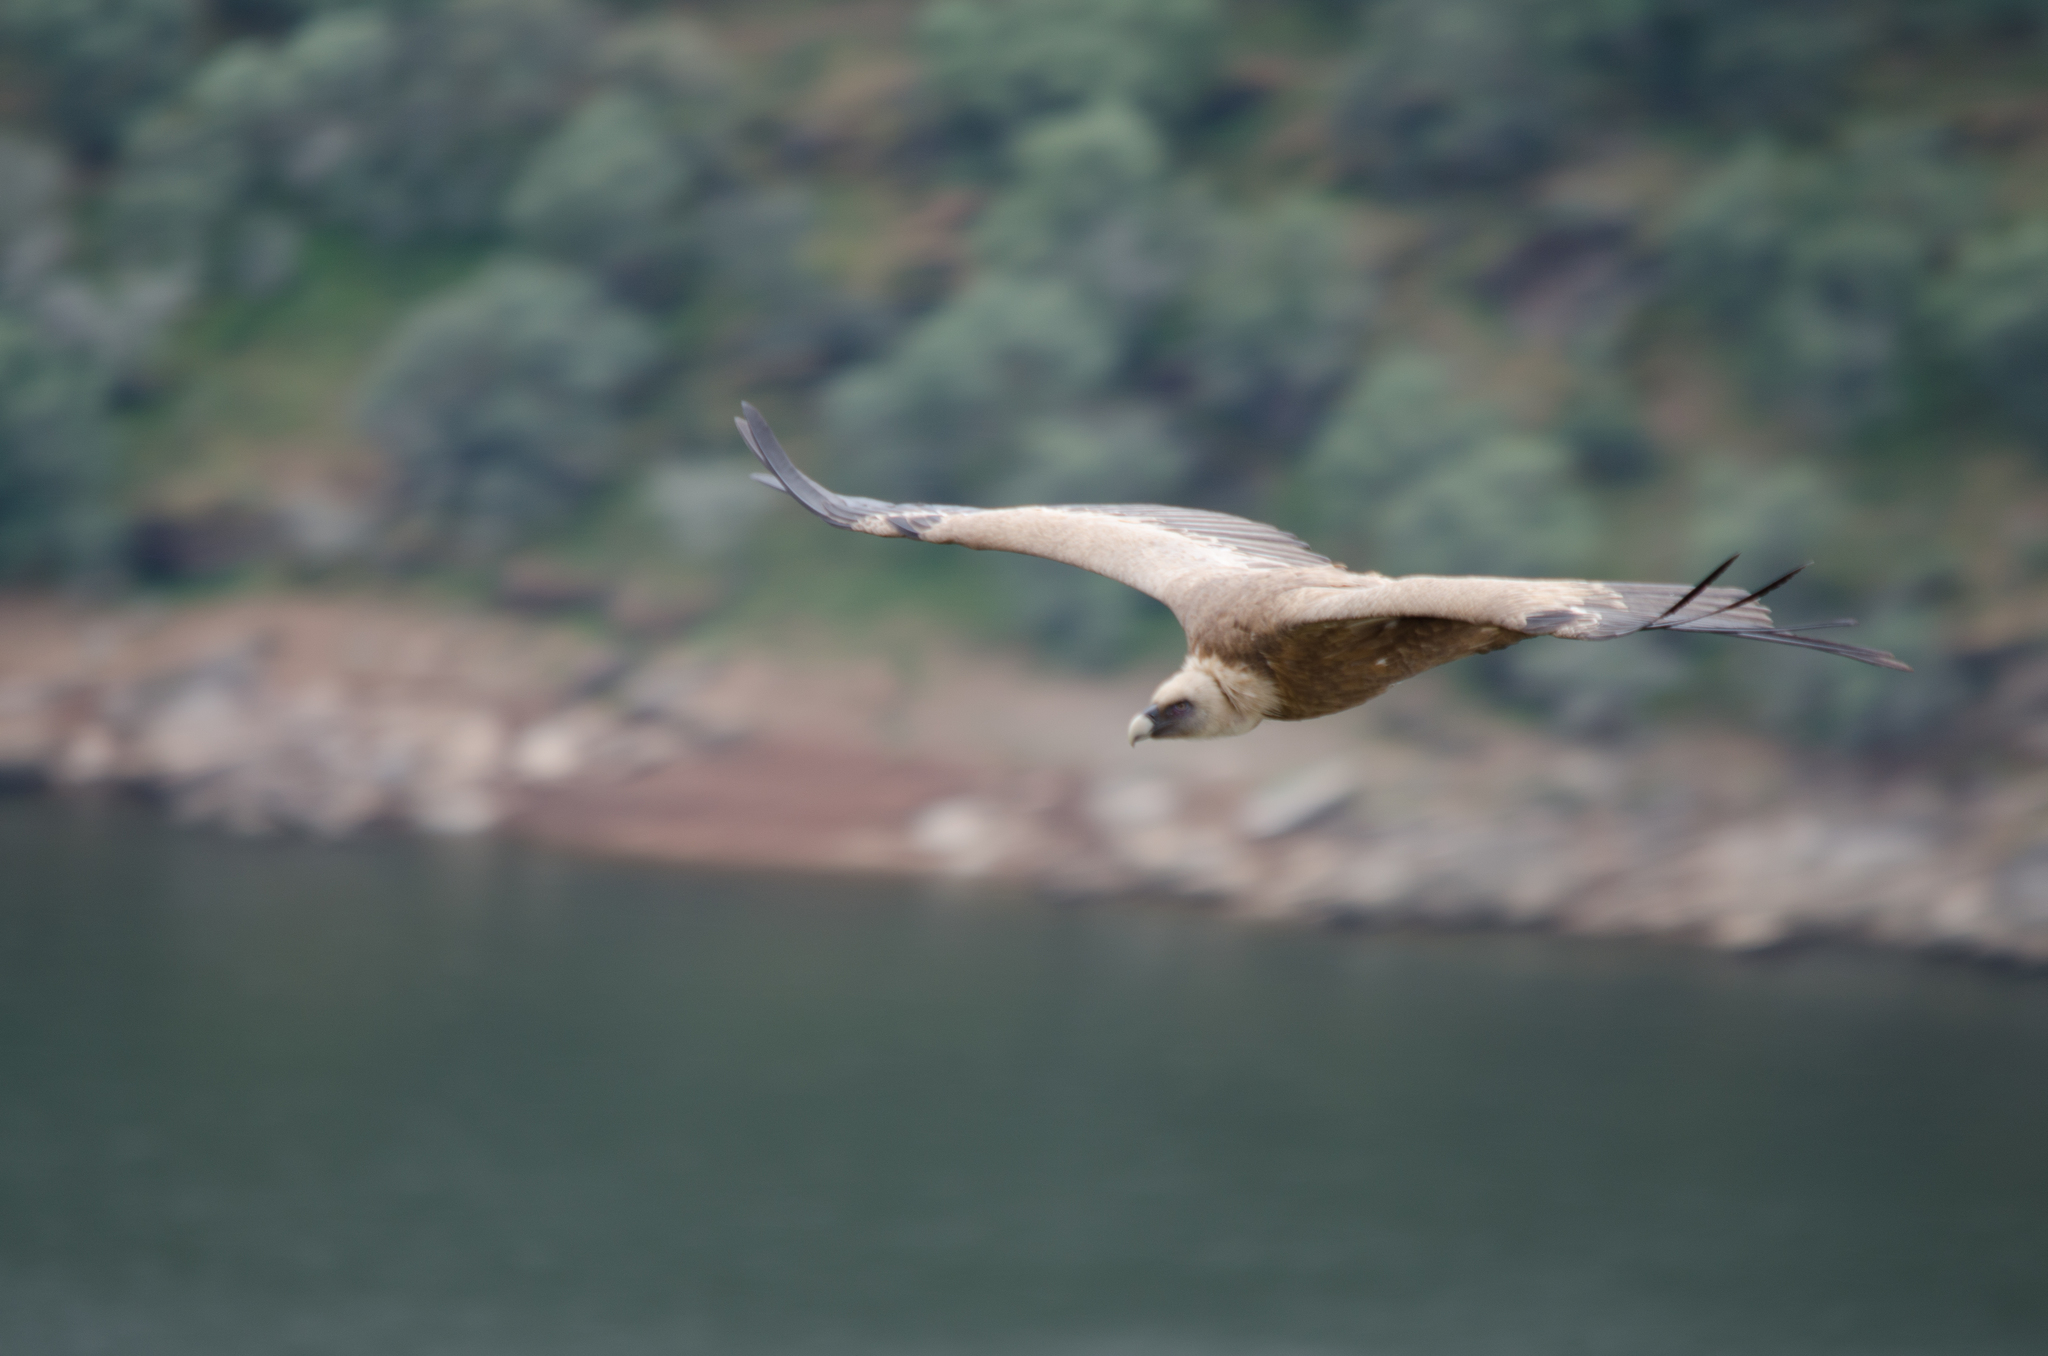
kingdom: Animalia
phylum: Chordata
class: Aves
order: Accipitriformes
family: Accipitridae
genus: Gyps
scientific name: Gyps fulvus
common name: Griffon vulture
